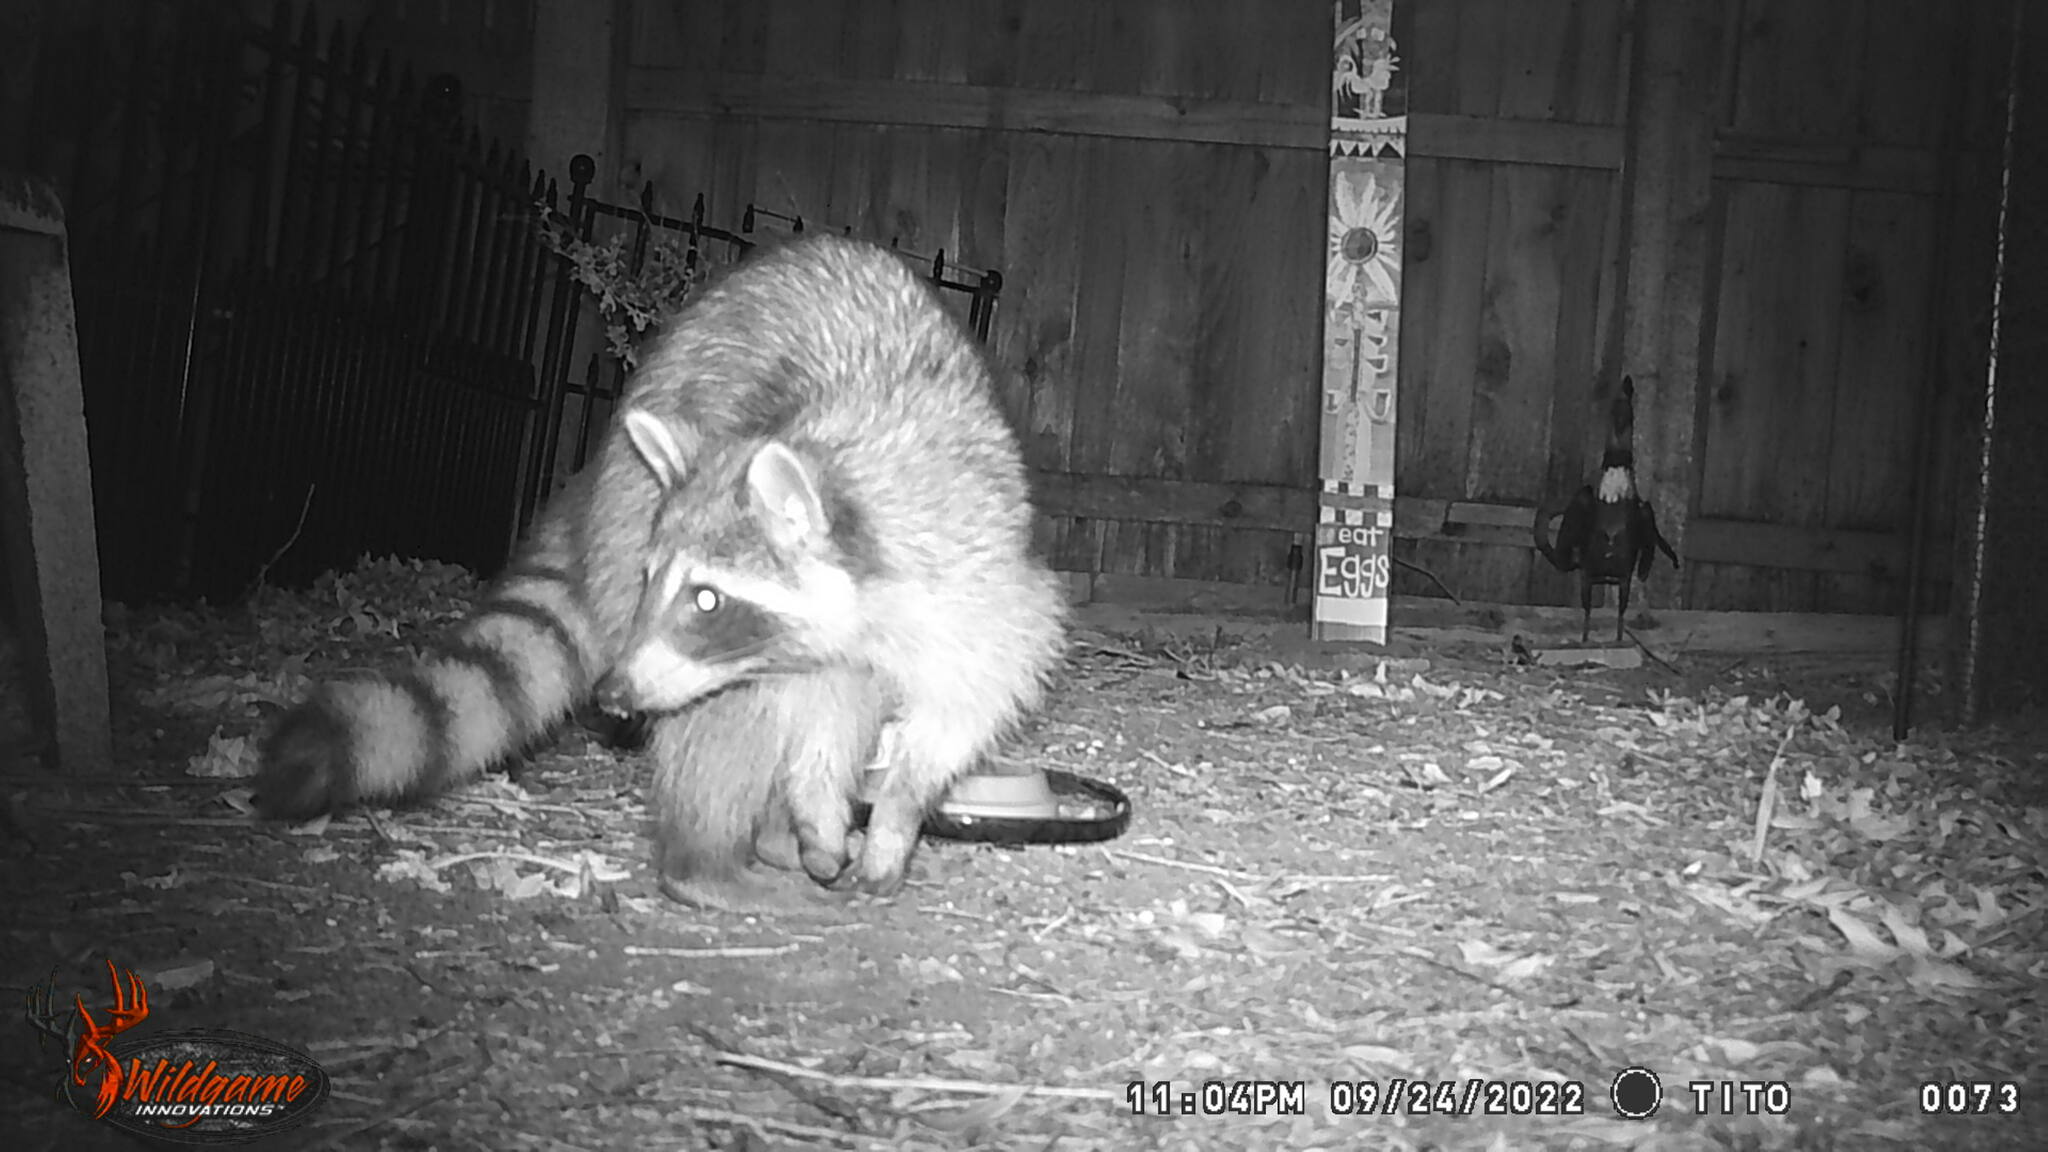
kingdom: Animalia
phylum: Chordata
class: Mammalia
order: Carnivora
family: Procyonidae
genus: Procyon
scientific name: Procyon lotor
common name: Raccoon
